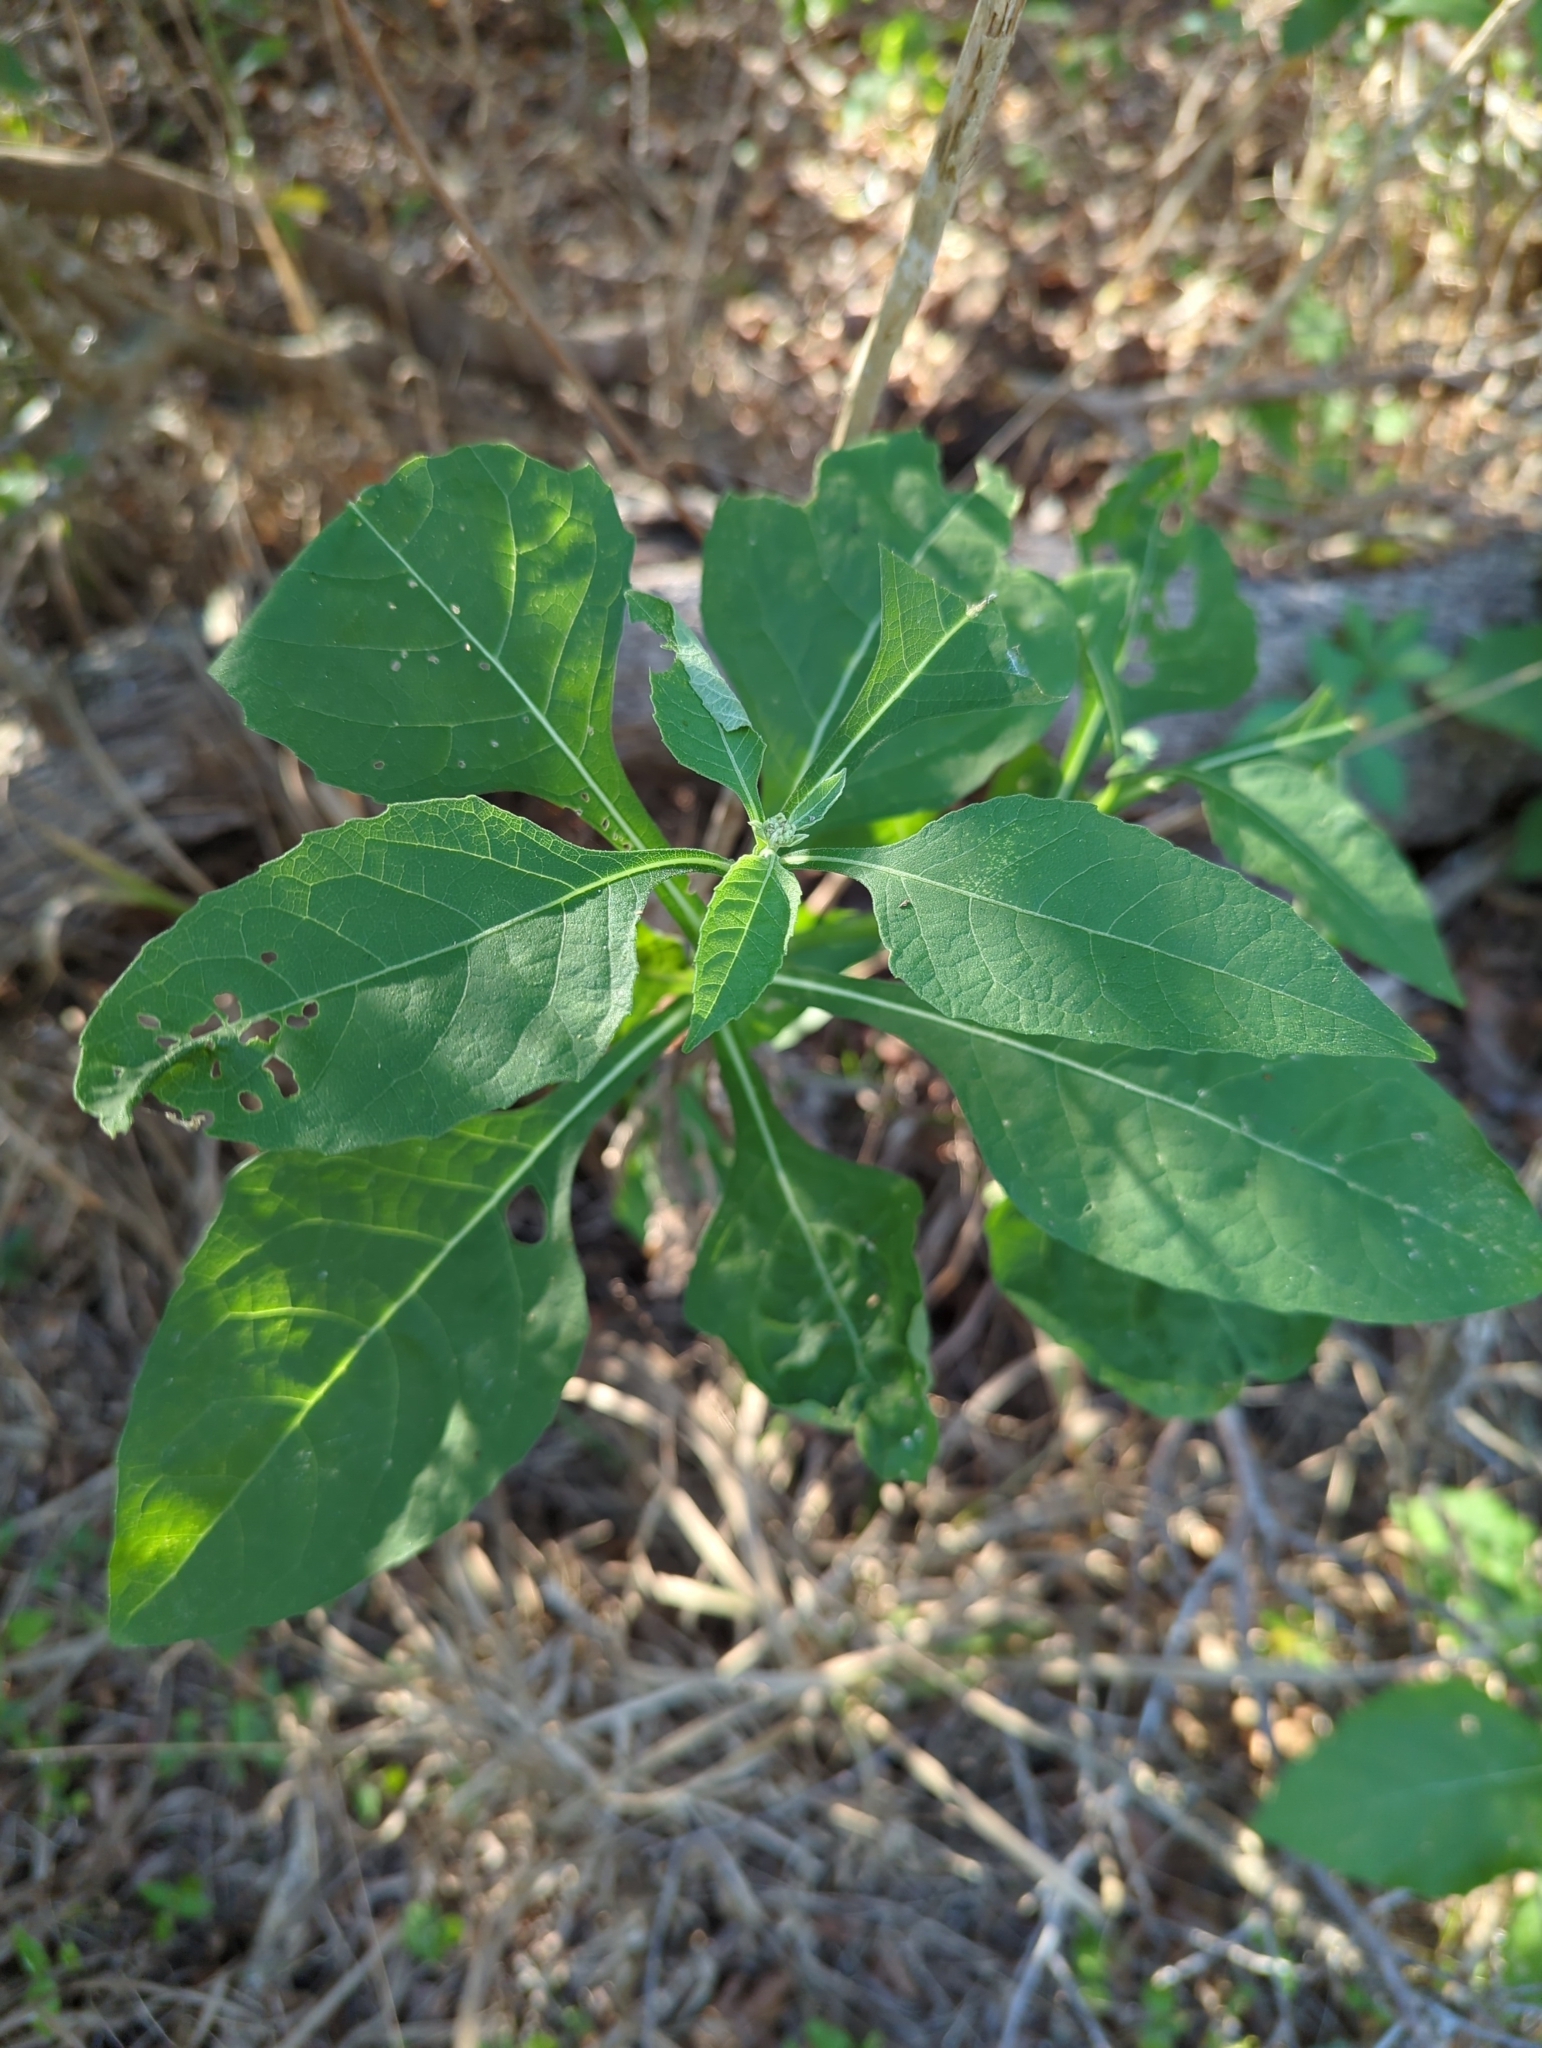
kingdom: Plantae
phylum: Tracheophyta
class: Magnoliopsida
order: Asterales
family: Asteraceae
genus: Verbesina
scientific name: Verbesina virginica
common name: Frostweed
